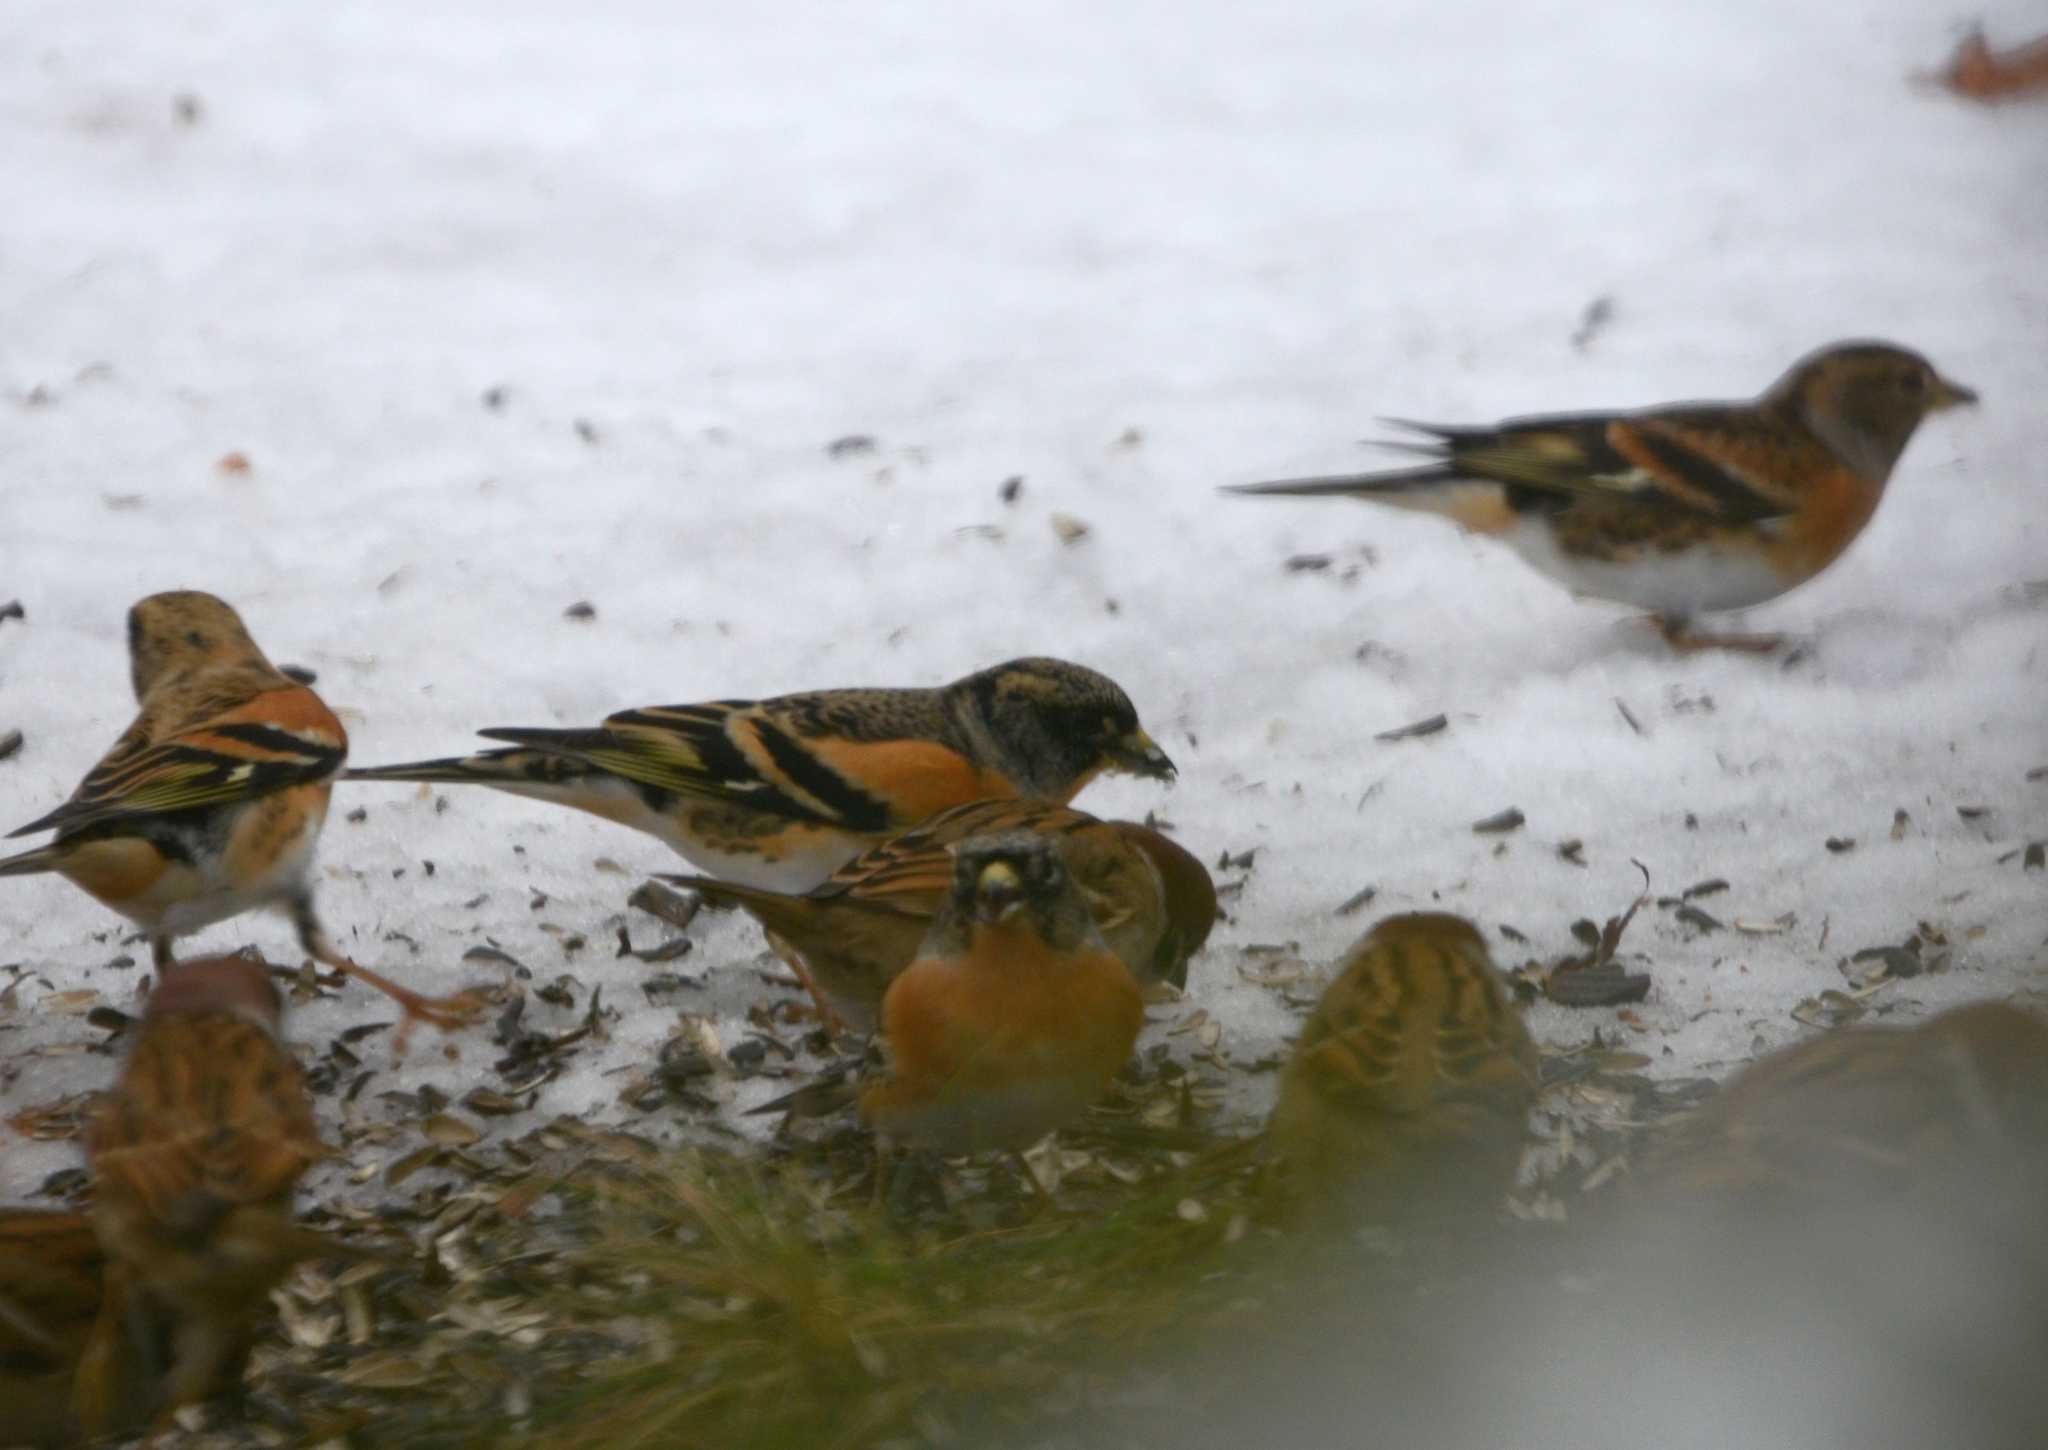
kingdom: Animalia
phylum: Chordata
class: Aves
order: Passeriformes
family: Fringillidae
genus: Fringilla
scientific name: Fringilla montifringilla
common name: Brambling
